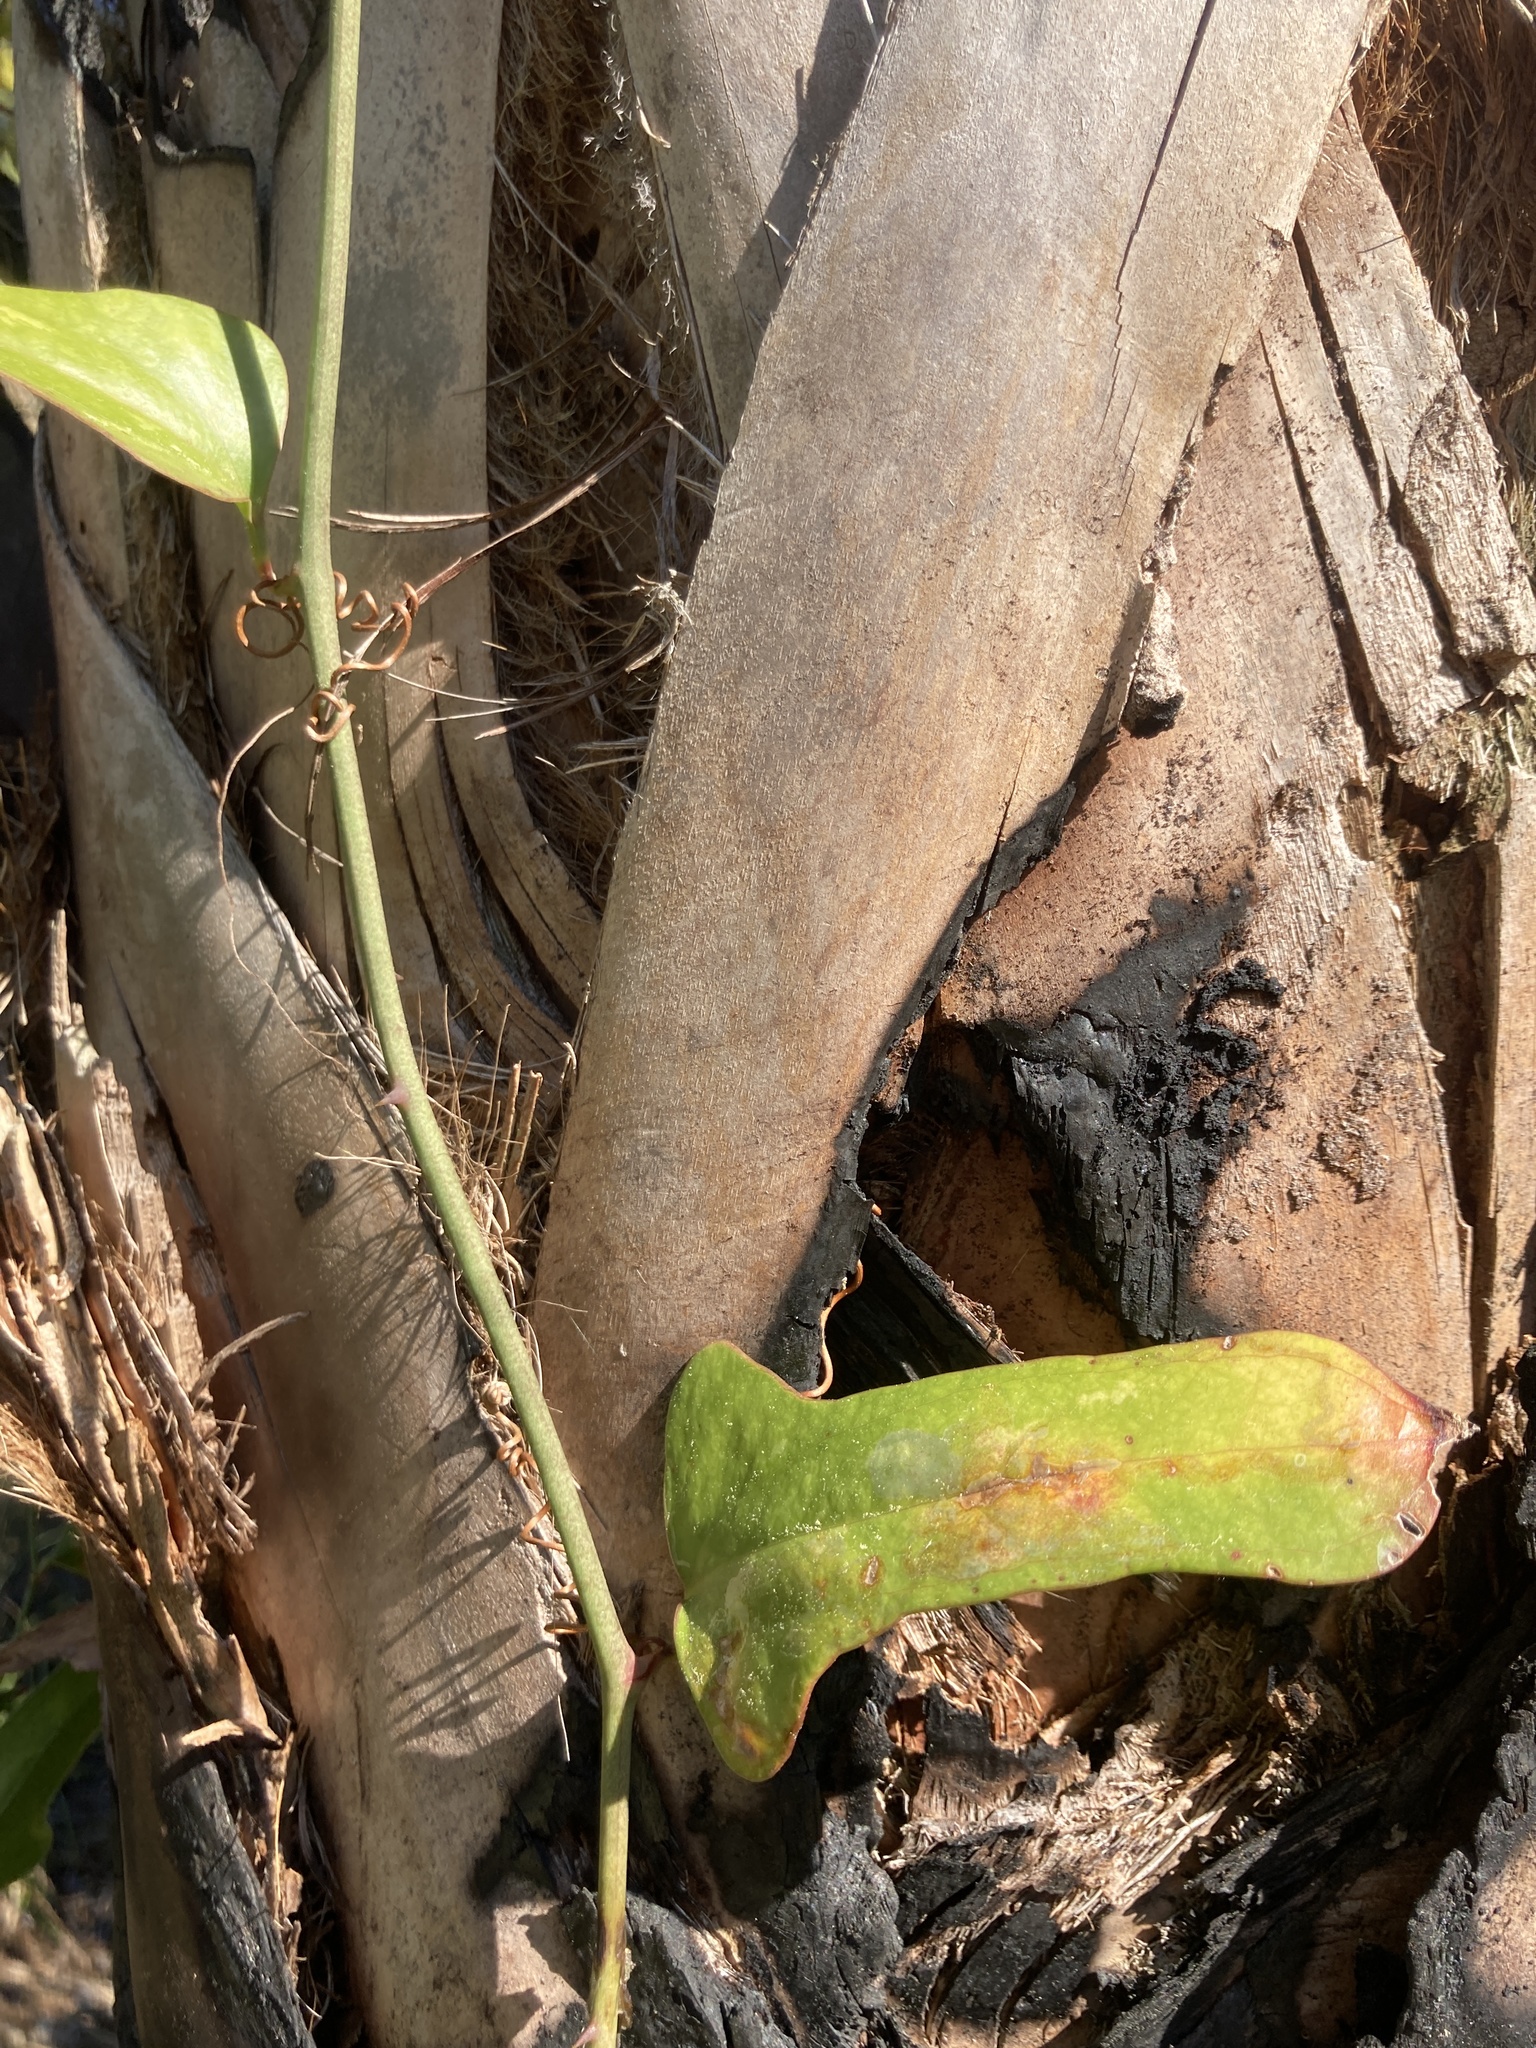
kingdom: Plantae
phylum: Tracheophyta
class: Liliopsida
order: Liliales
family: Smilacaceae
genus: Smilax
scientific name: Smilax bona-nox
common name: Catbrier
